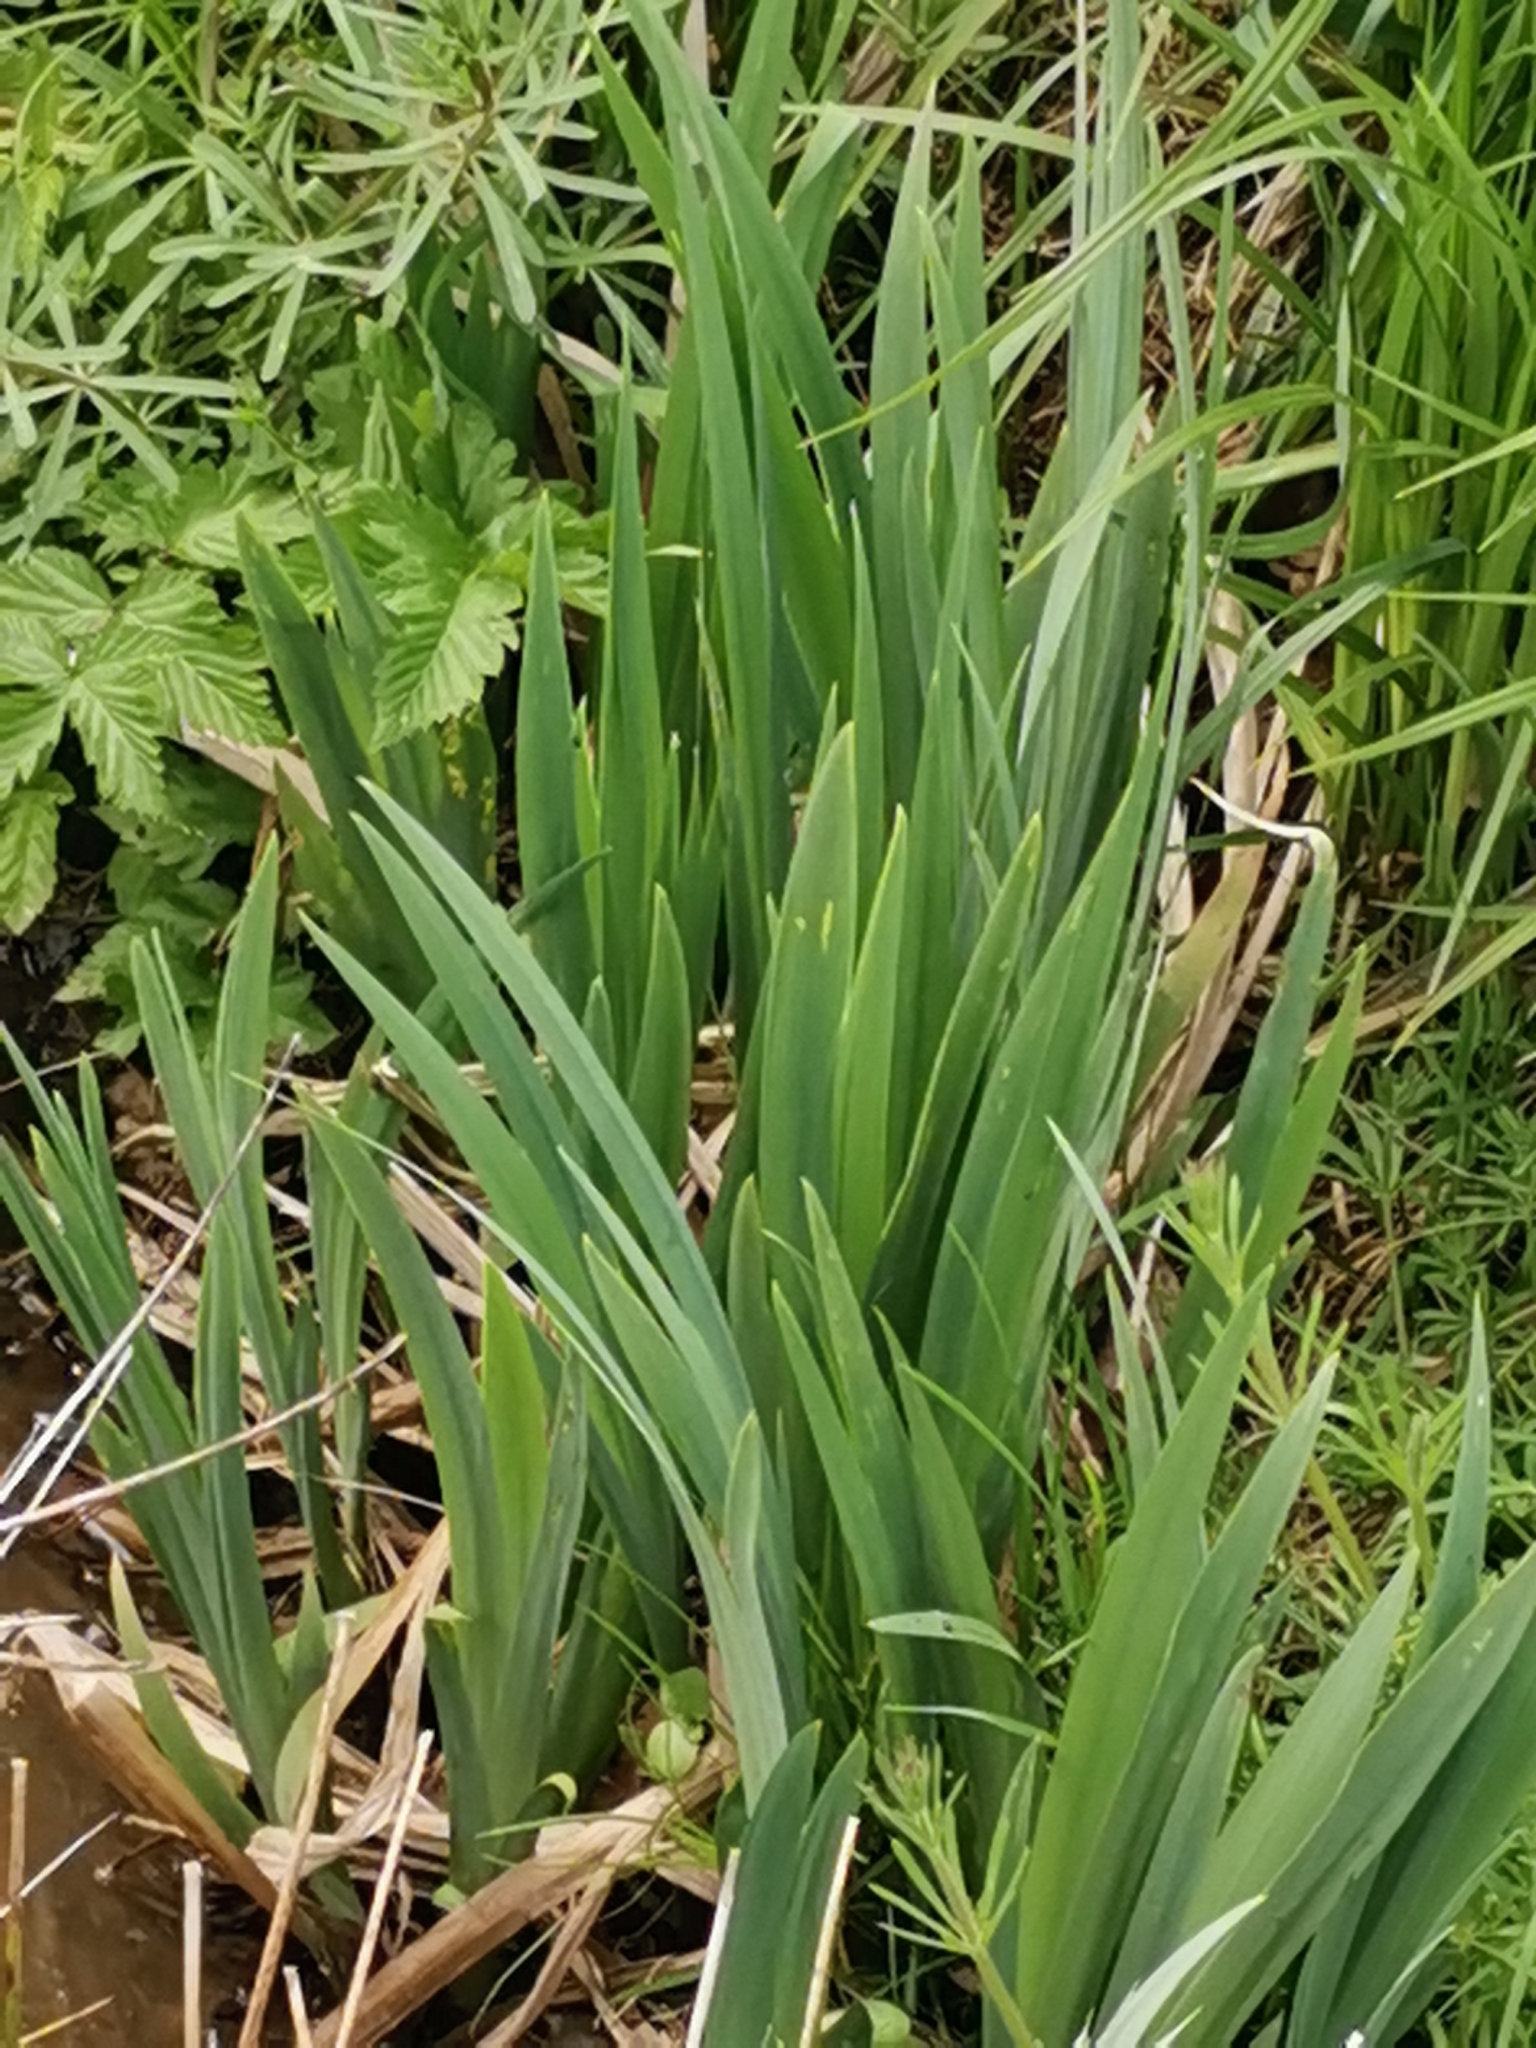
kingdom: Plantae
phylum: Tracheophyta
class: Liliopsida
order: Asparagales
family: Iridaceae
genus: Iris
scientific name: Iris pseudacorus
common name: Yellow flag
